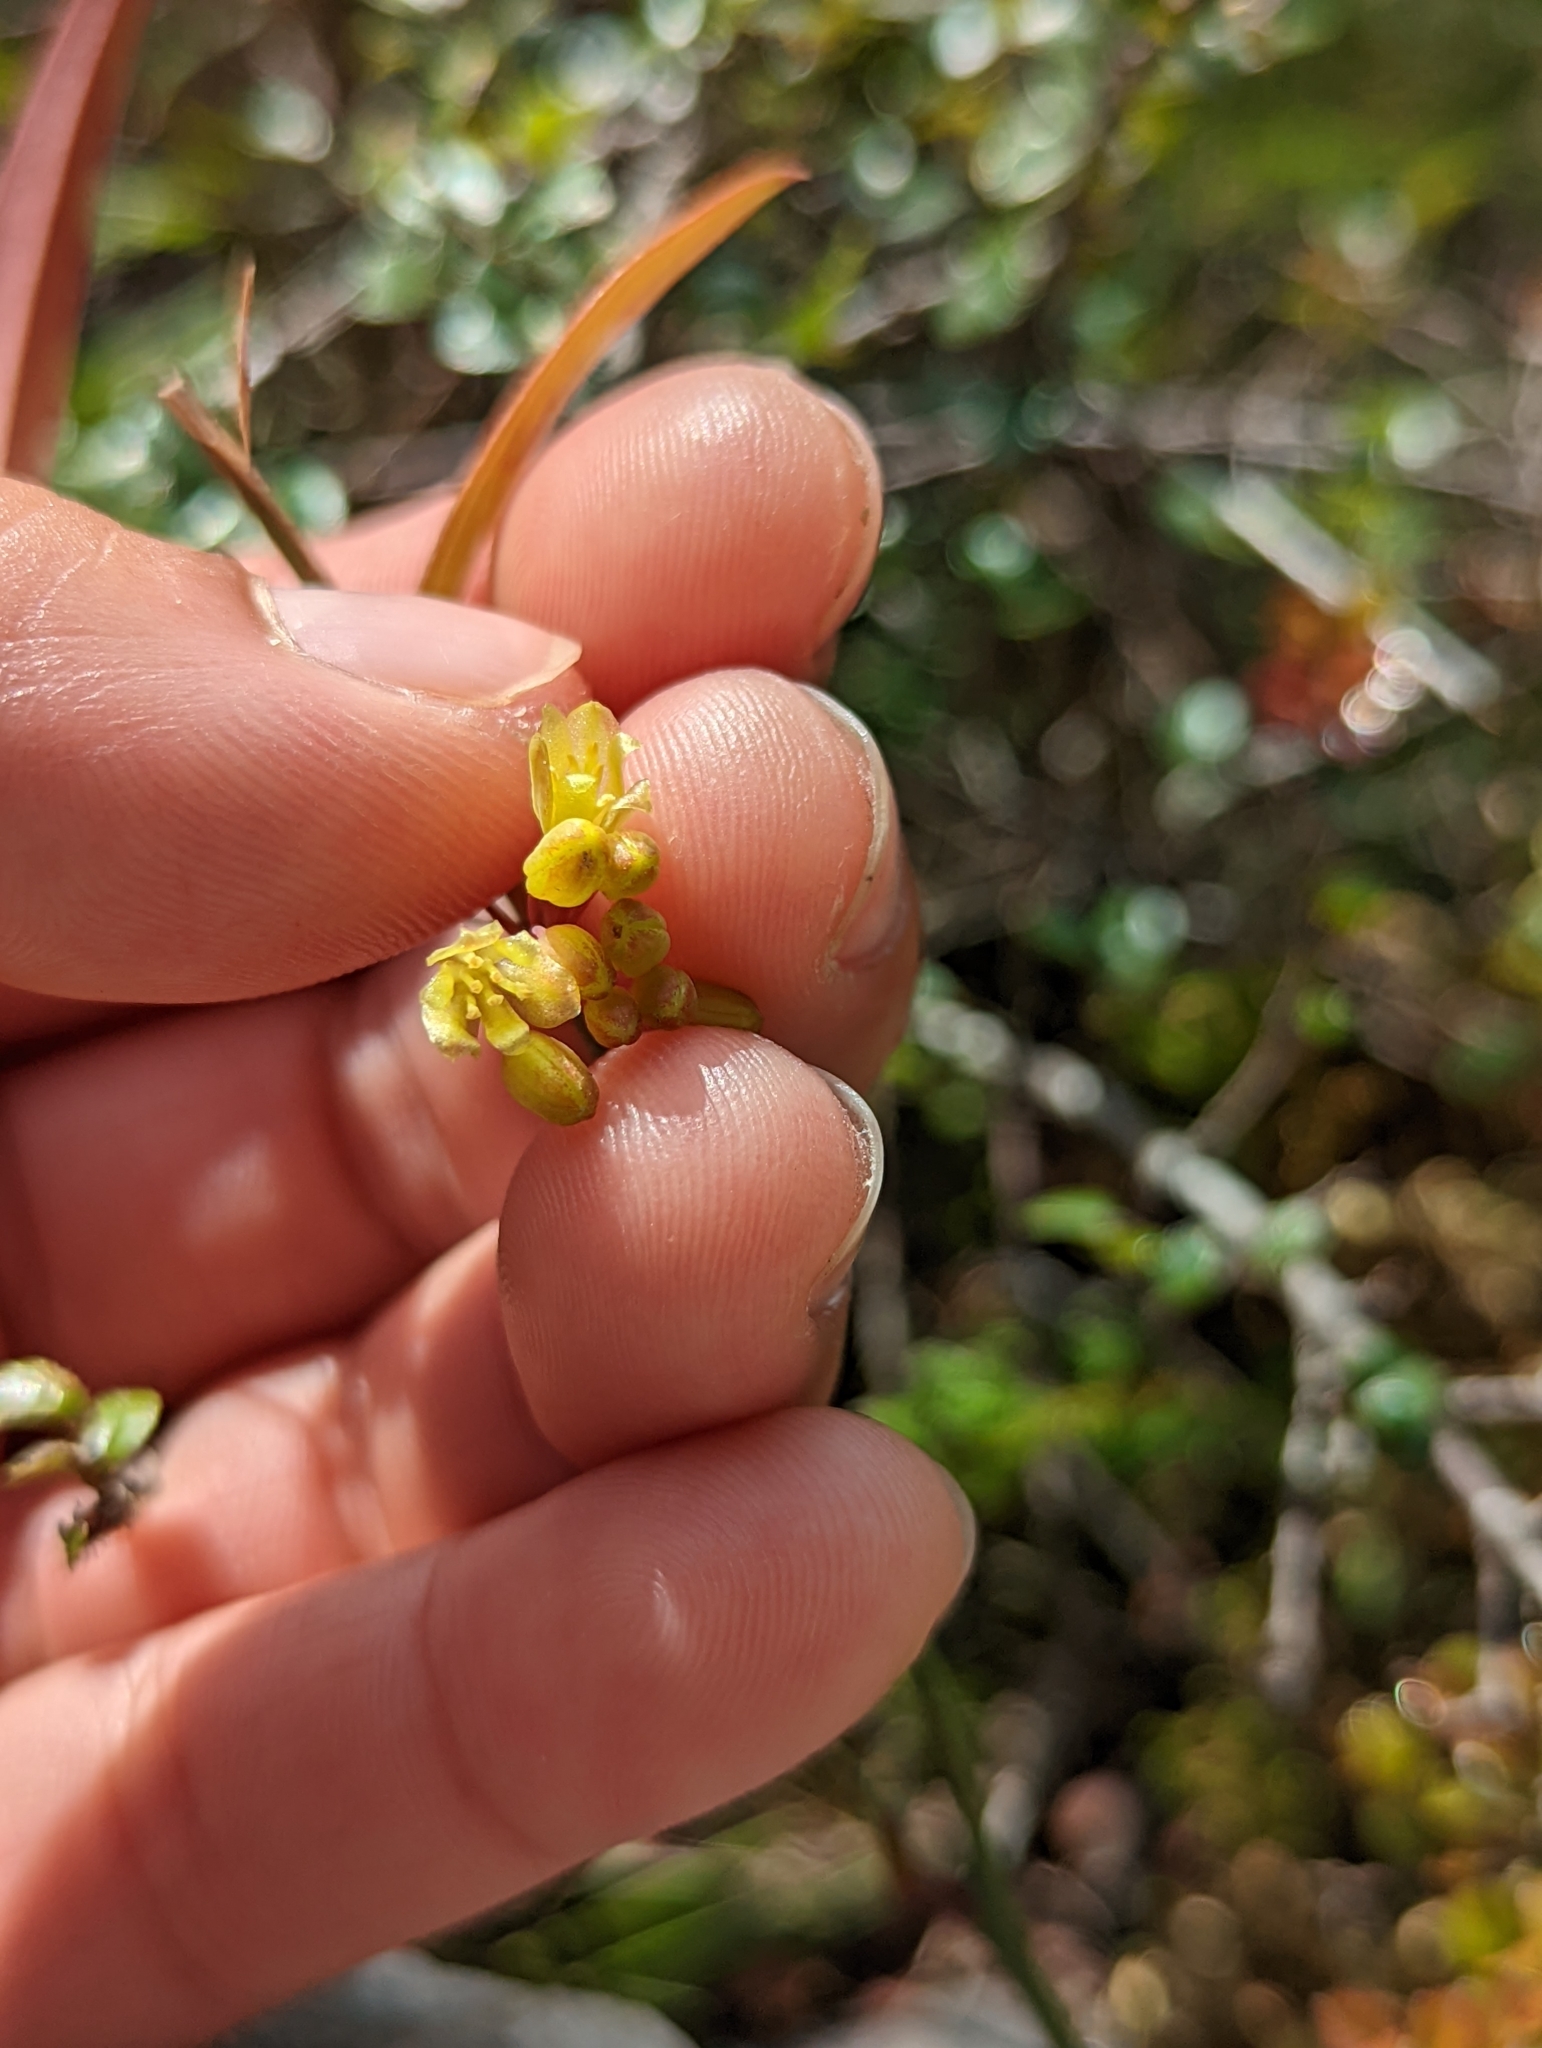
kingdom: Plantae
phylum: Tracheophyta
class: Liliopsida
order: Liliales
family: Smilacaceae
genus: Smilax
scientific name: Smilax elongatoumbellata
